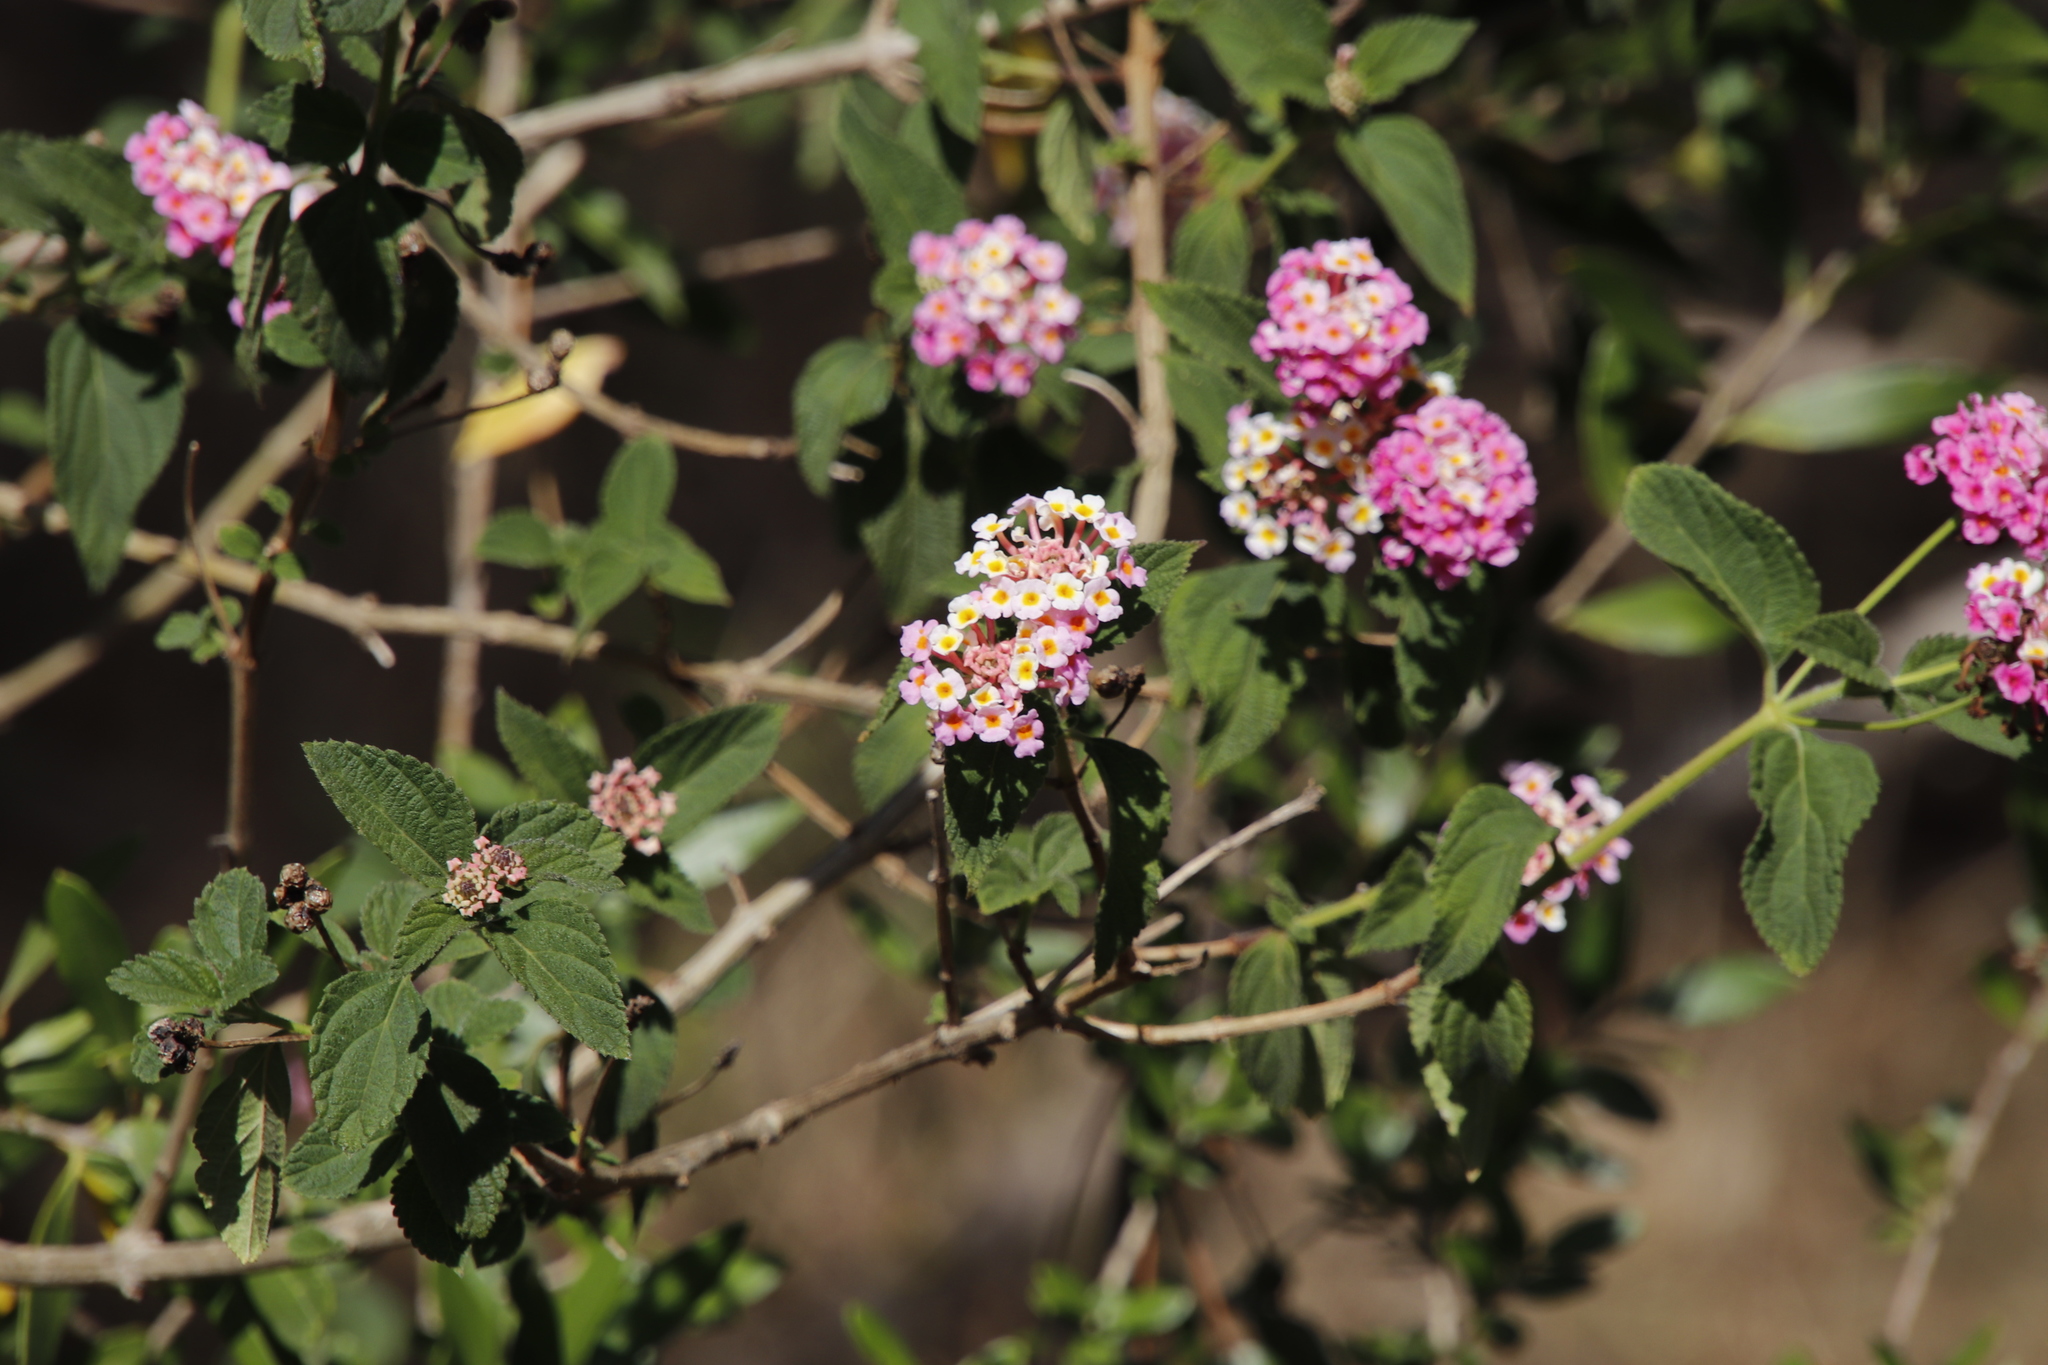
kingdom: Plantae
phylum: Tracheophyta
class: Magnoliopsida
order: Lamiales
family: Verbenaceae
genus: Lantana
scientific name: Lantana camara
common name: Lantana
